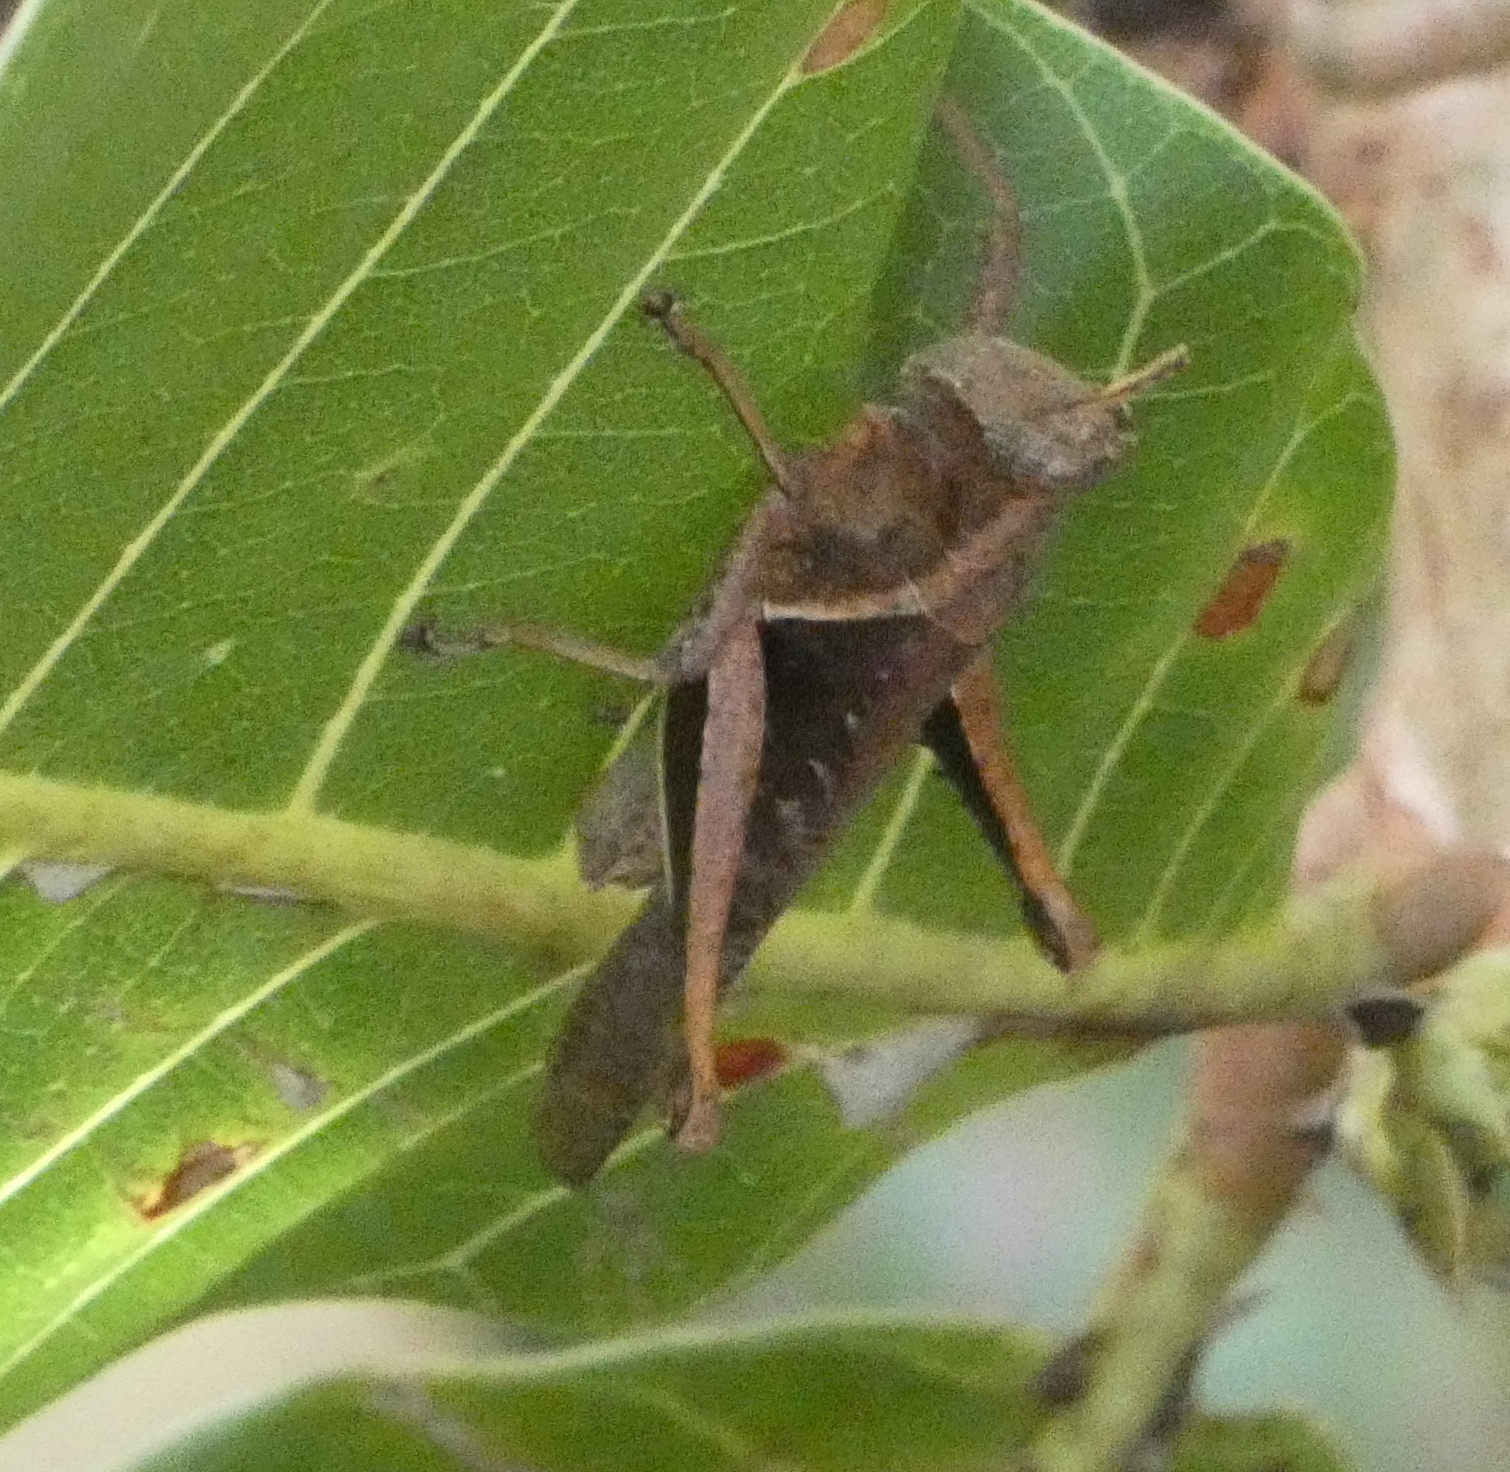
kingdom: Animalia
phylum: Arthropoda
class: Insecta
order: Orthoptera
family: Acrididae
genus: Abracris
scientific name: Abracris flavolineata
